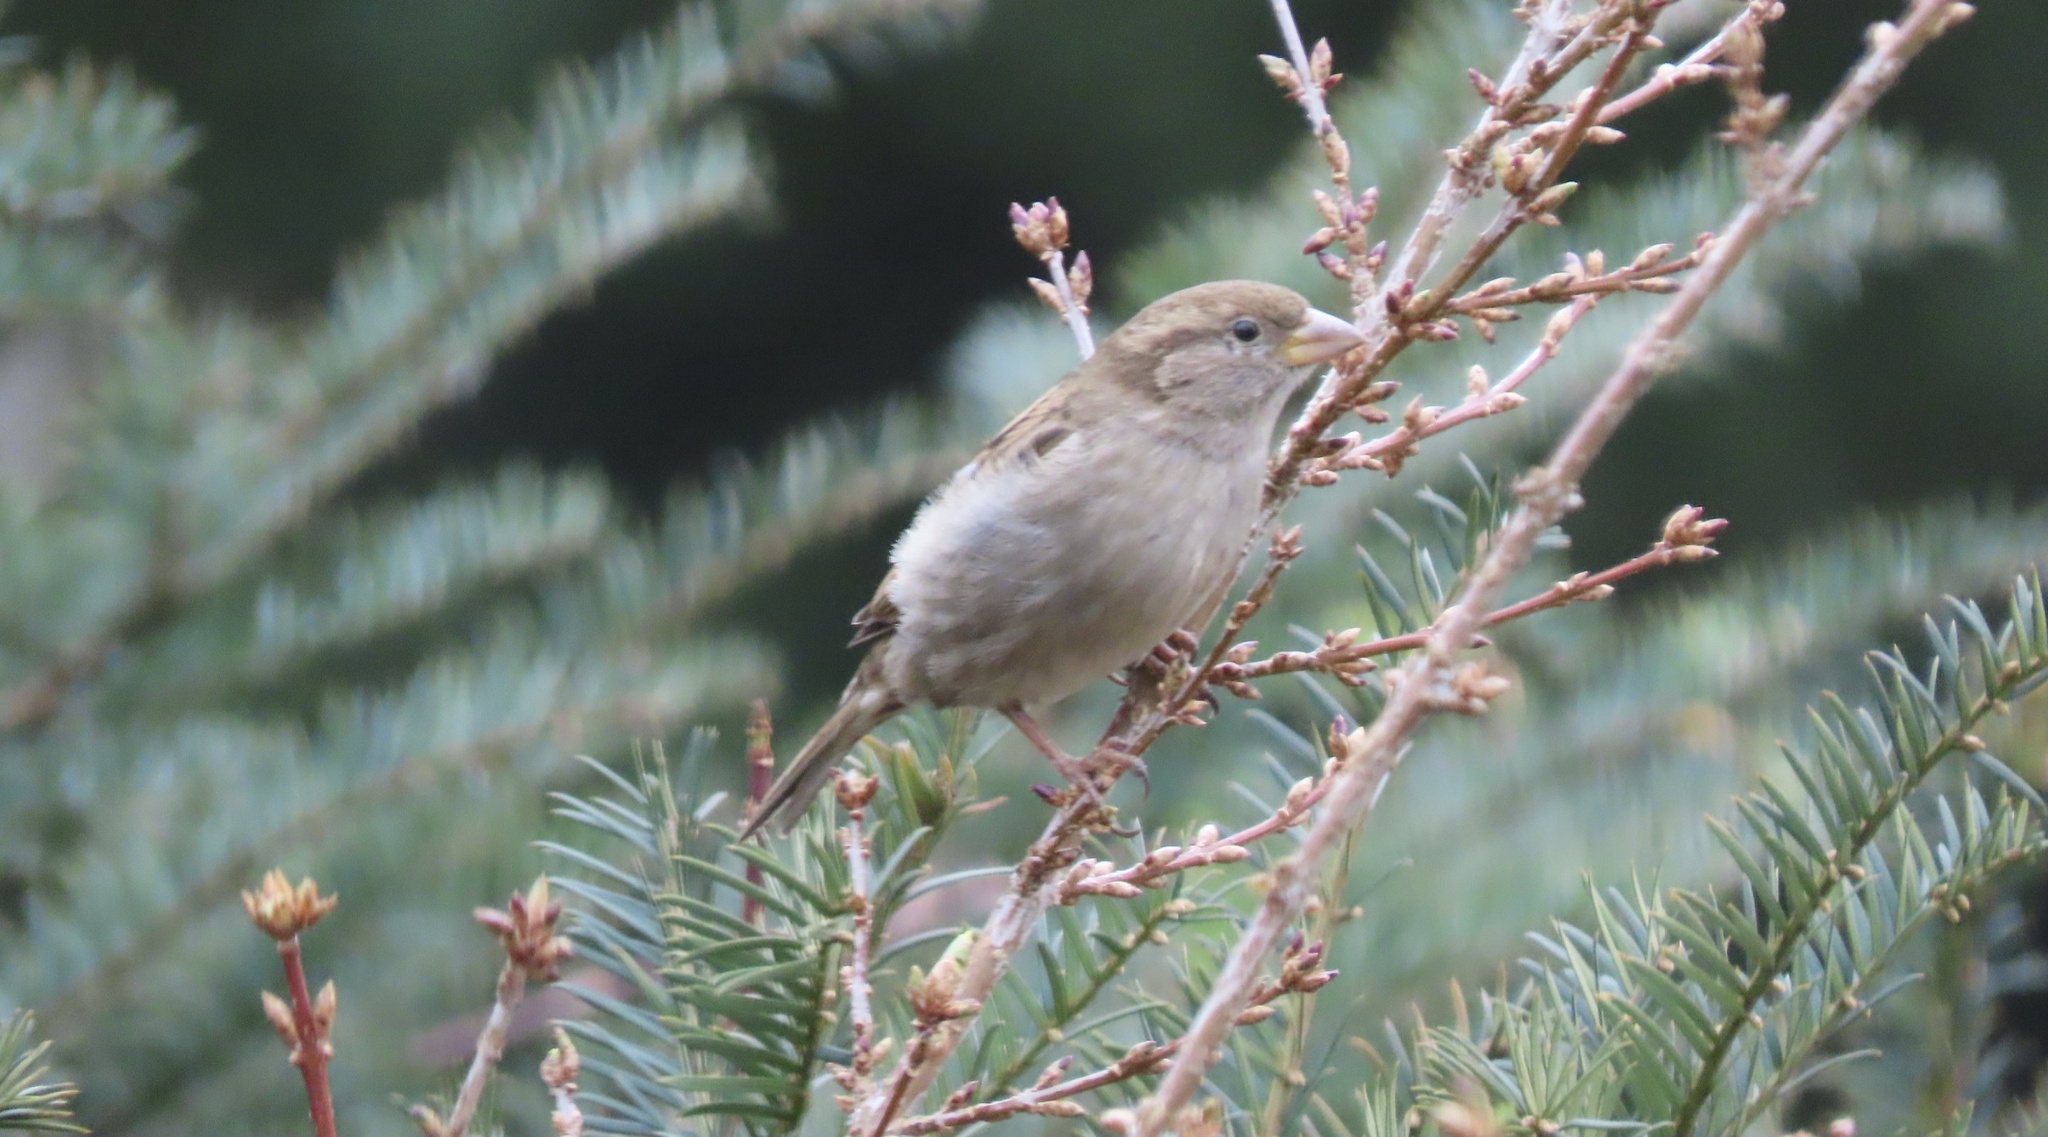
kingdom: Animalia
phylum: Chordata
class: Aves
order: Passeriformes
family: Passeridae
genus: Passer
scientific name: Passer domesticus
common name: House sparrow
